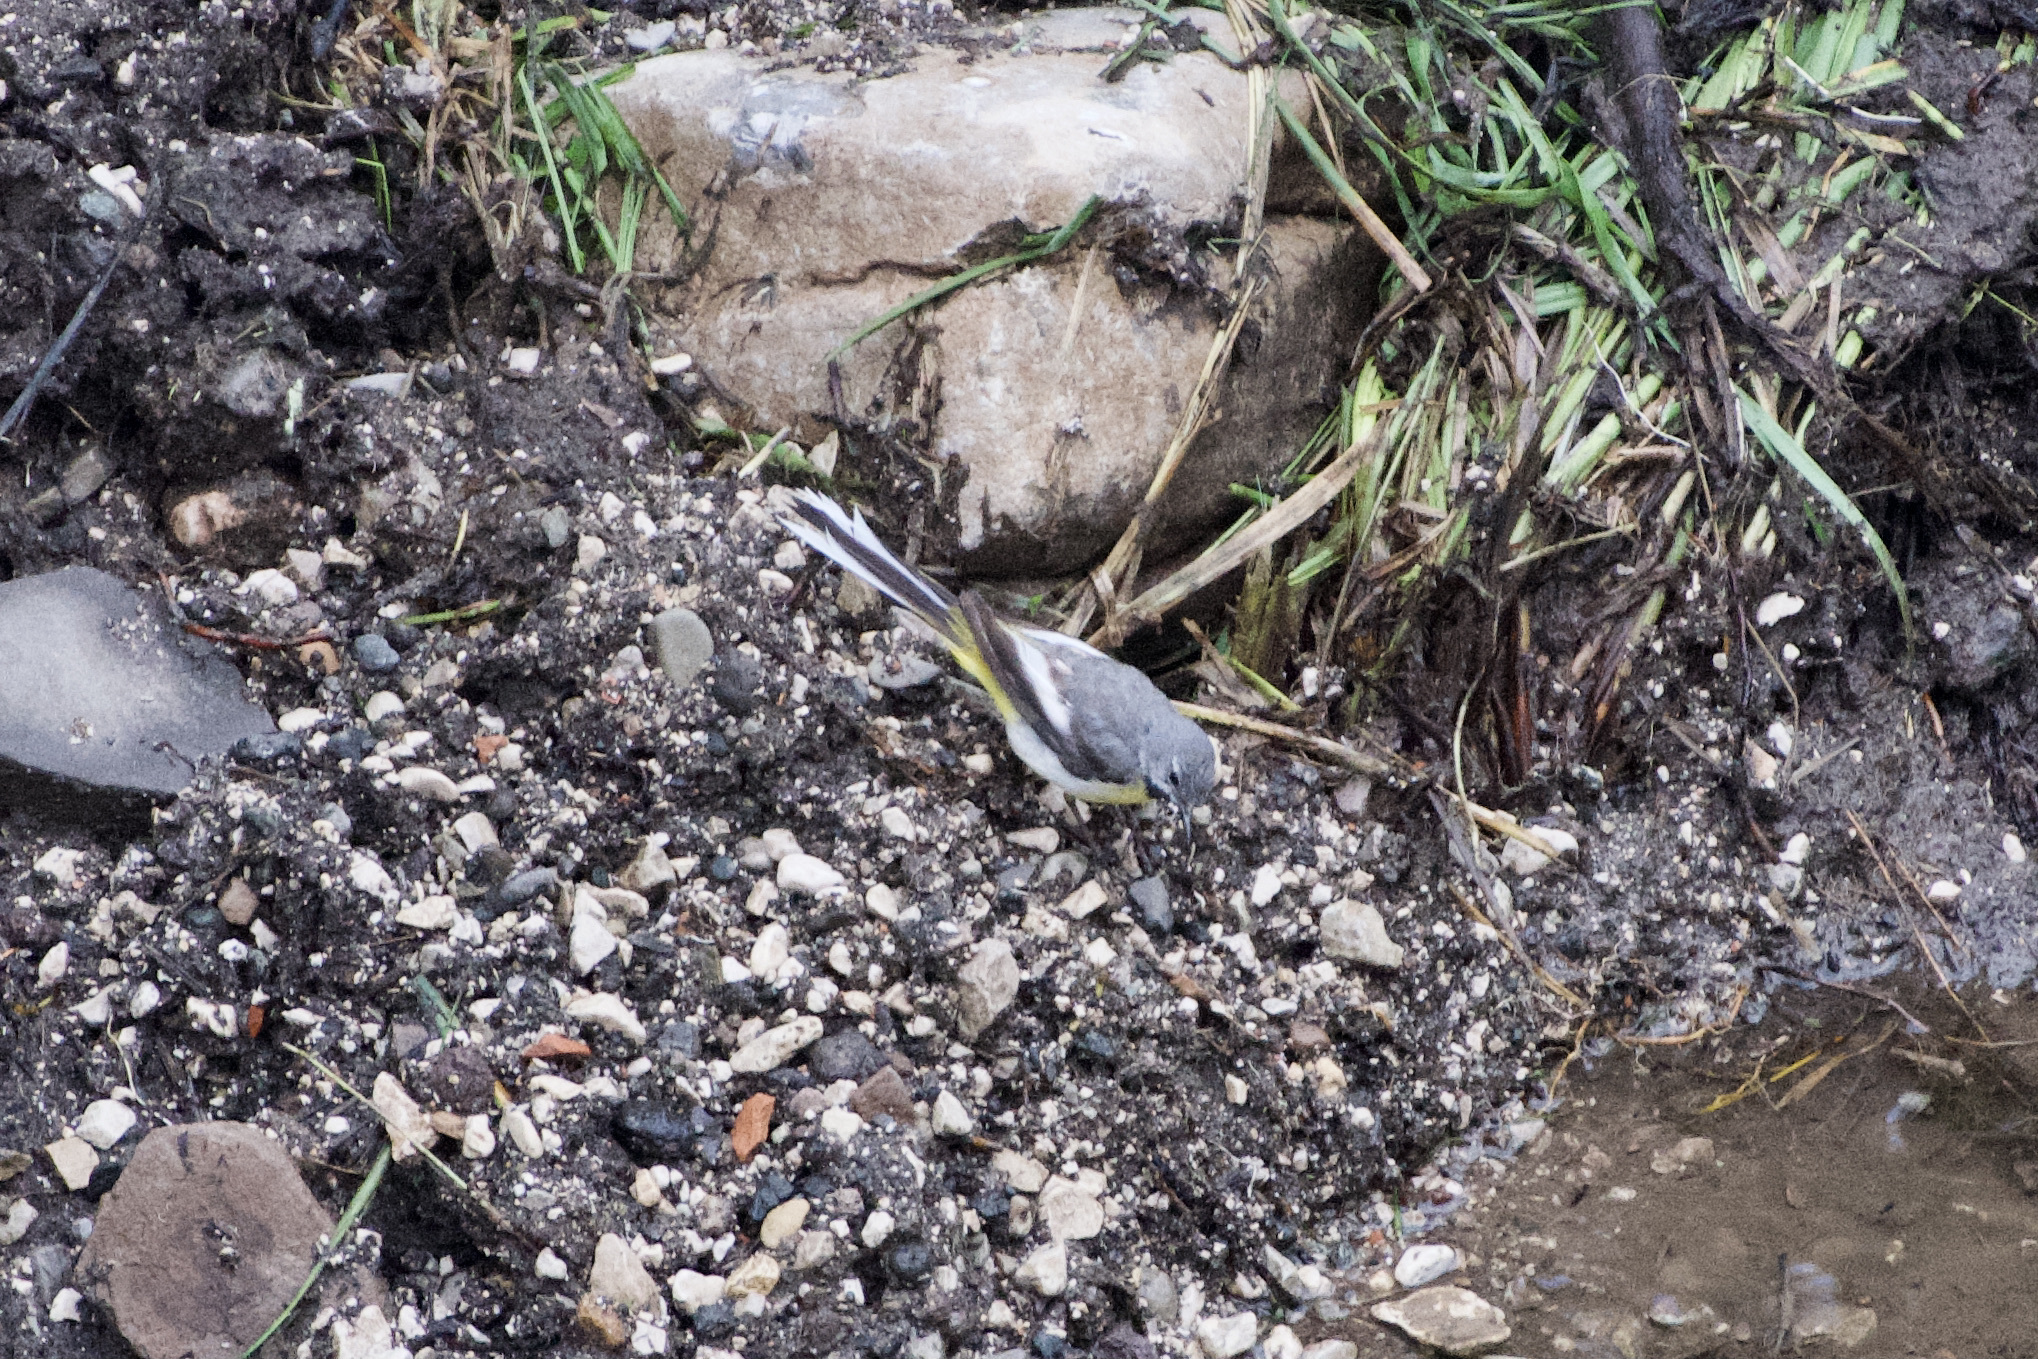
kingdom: Animalia
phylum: Chordata
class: Aves
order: Passeriformes
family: Motacillidae
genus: Motacilla
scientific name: Motacilla cinerea
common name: Grey wagtail
